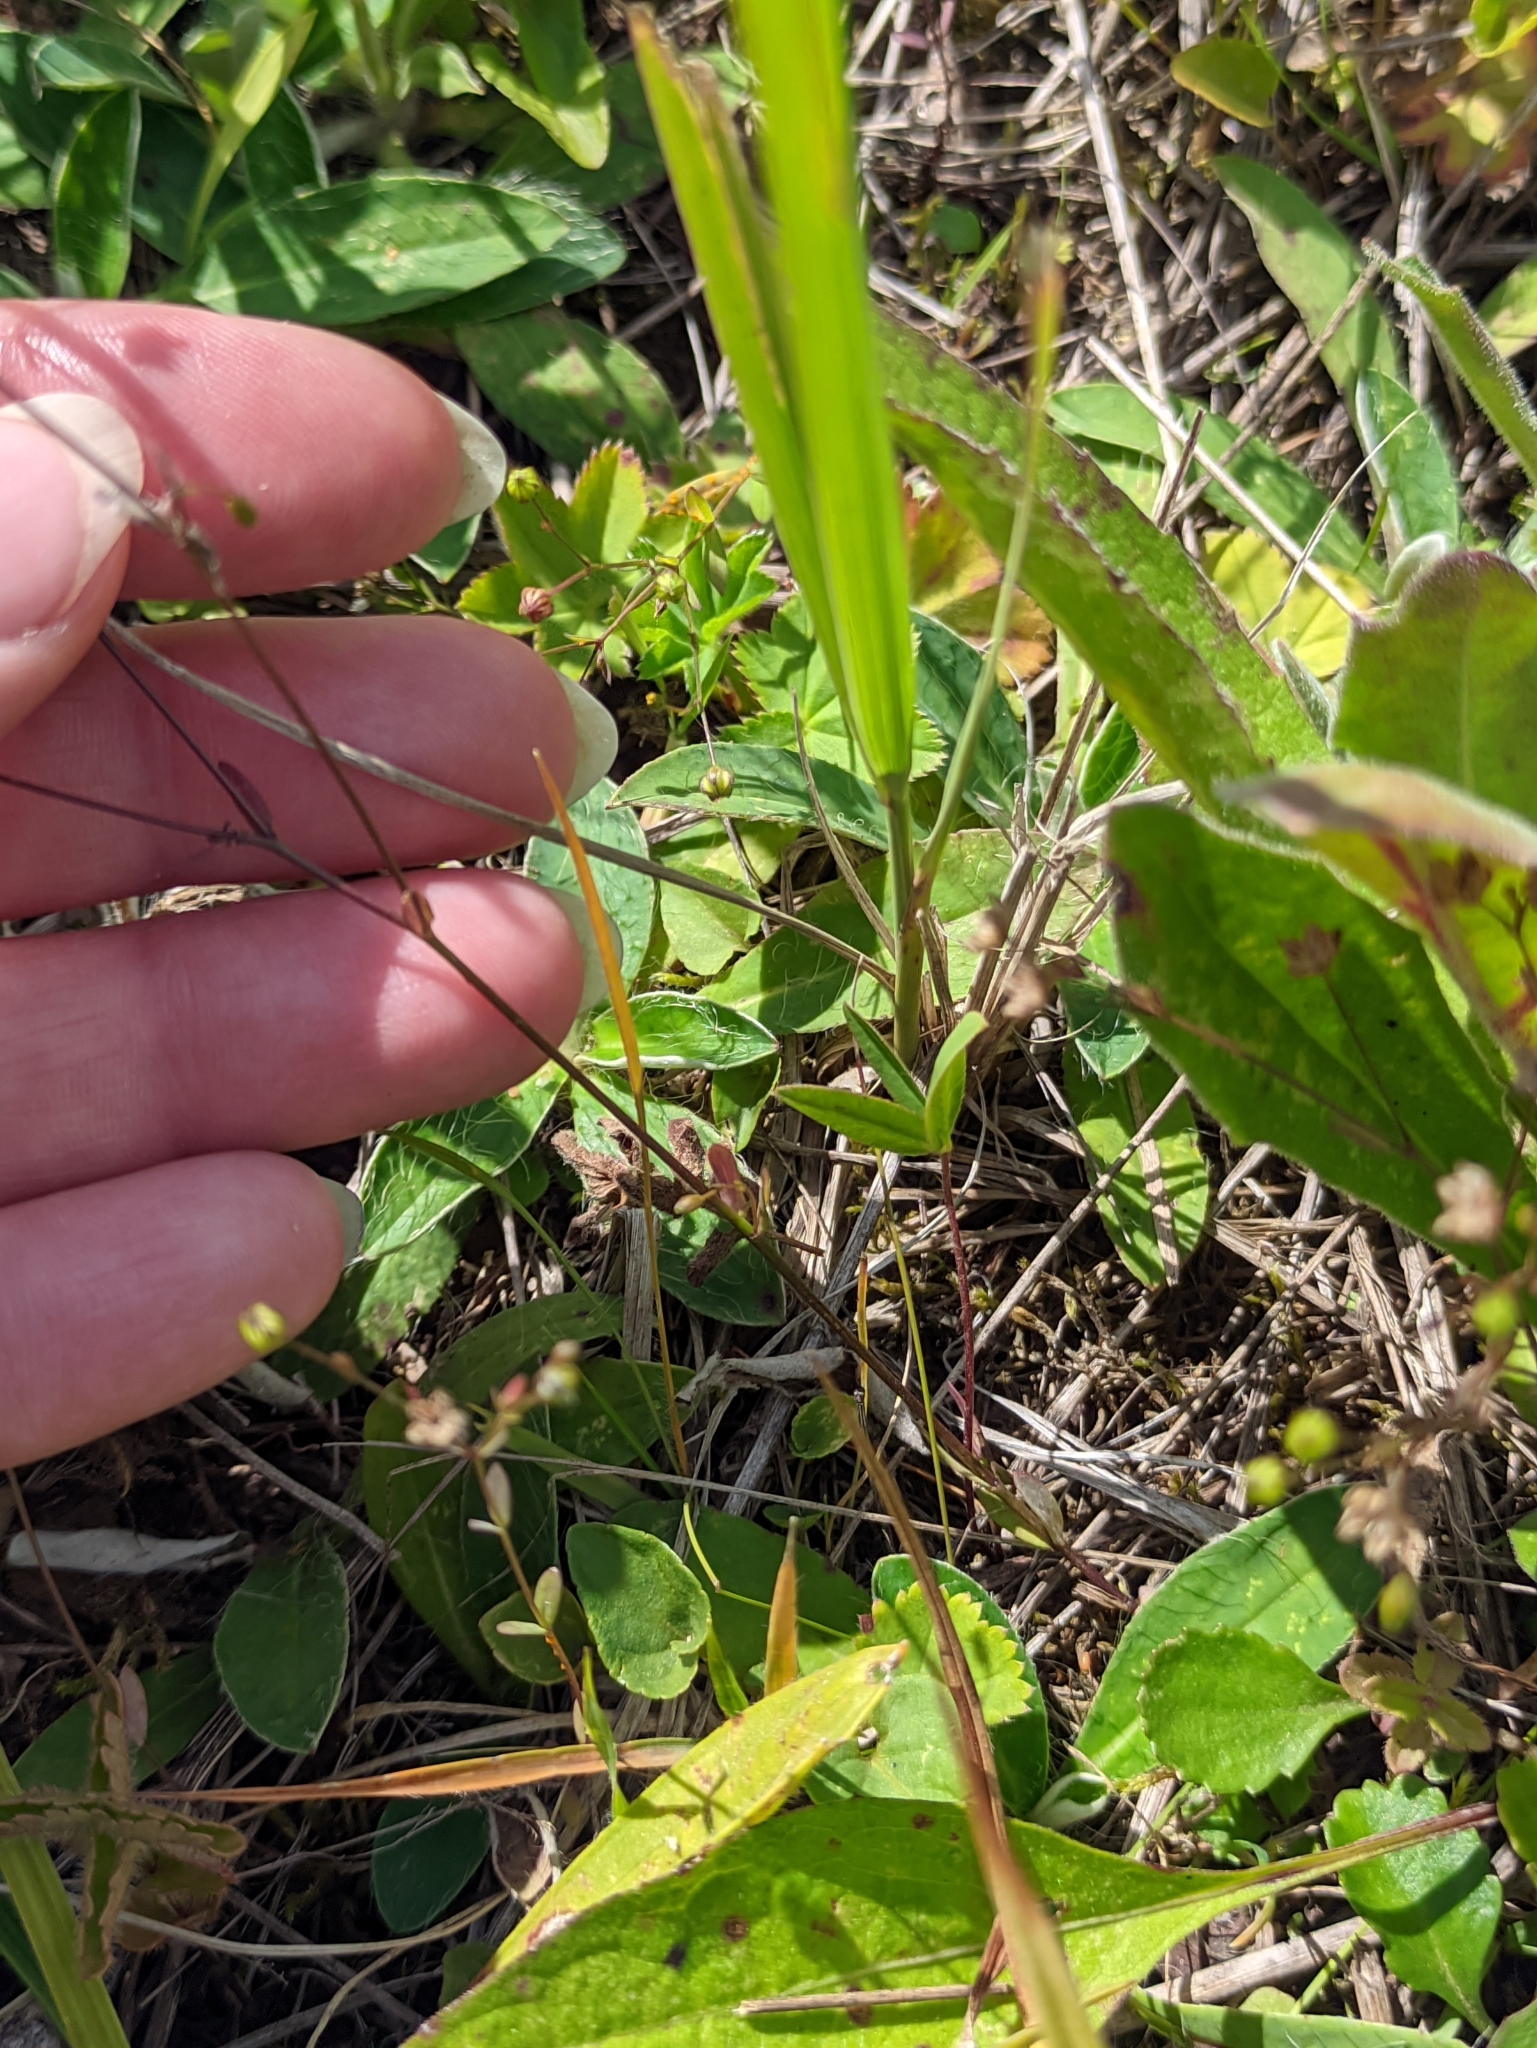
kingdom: Plantae
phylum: Tracheophyta
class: Magnoliopsida
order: Malpighiales
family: Linaceae
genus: Linum
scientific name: Linum catharticum
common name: Fairy flax
